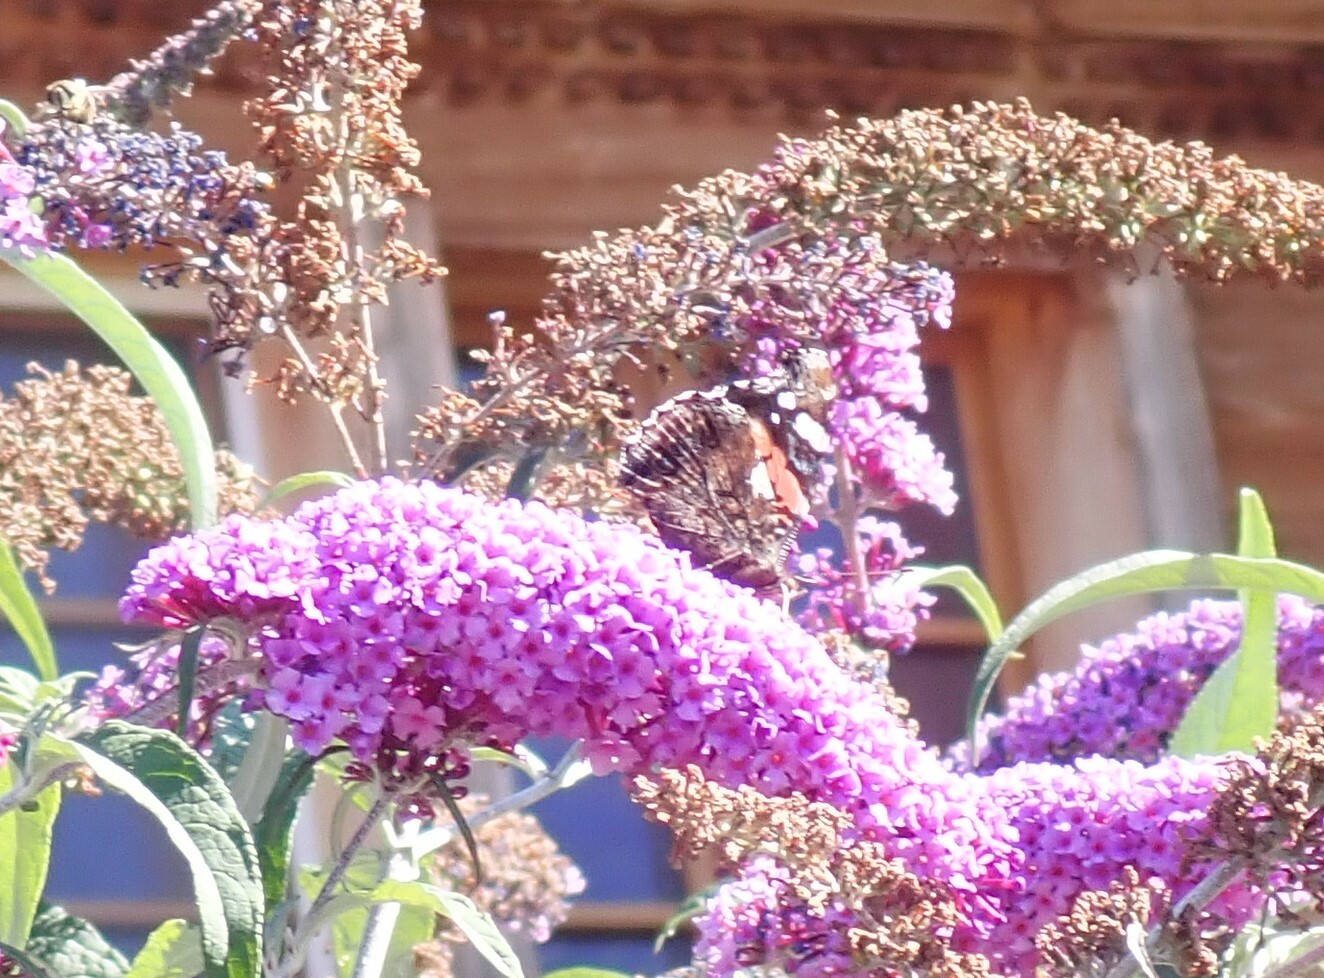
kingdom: Animalia
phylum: Arthropoda
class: Insecta
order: Lepidoptera
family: Nymphalidae
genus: Vanessa
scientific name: Vanessa atalanta
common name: Red admiral
